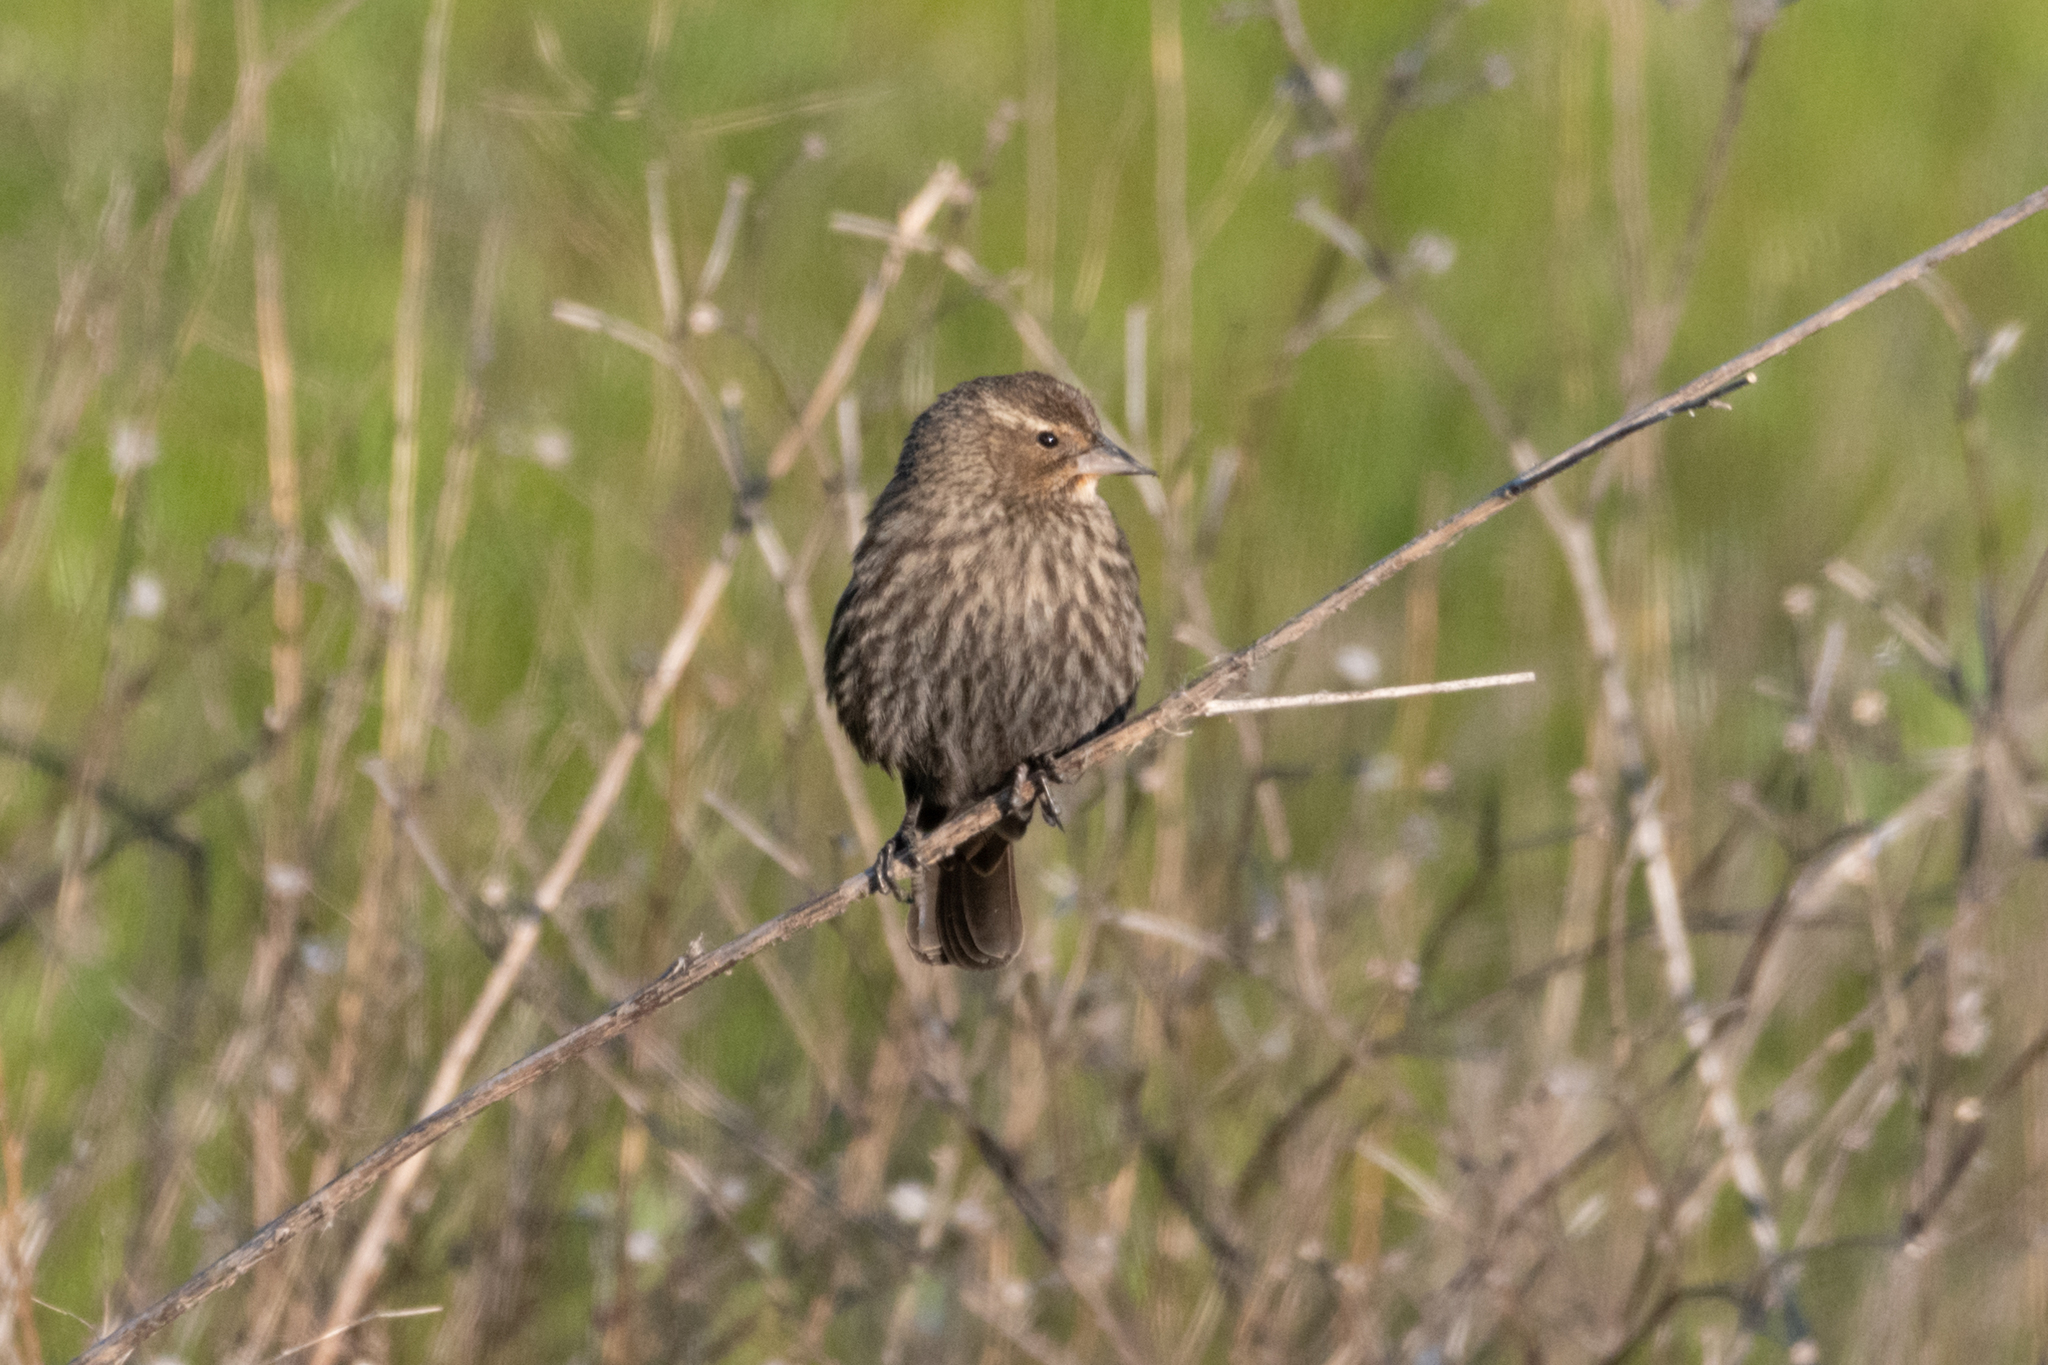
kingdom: Animalia
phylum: Chordata
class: Aves
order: Passeriformes
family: Icteridae
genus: Agelaius
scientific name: Agelaius phoeniceus
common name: Red-winged blackbird
